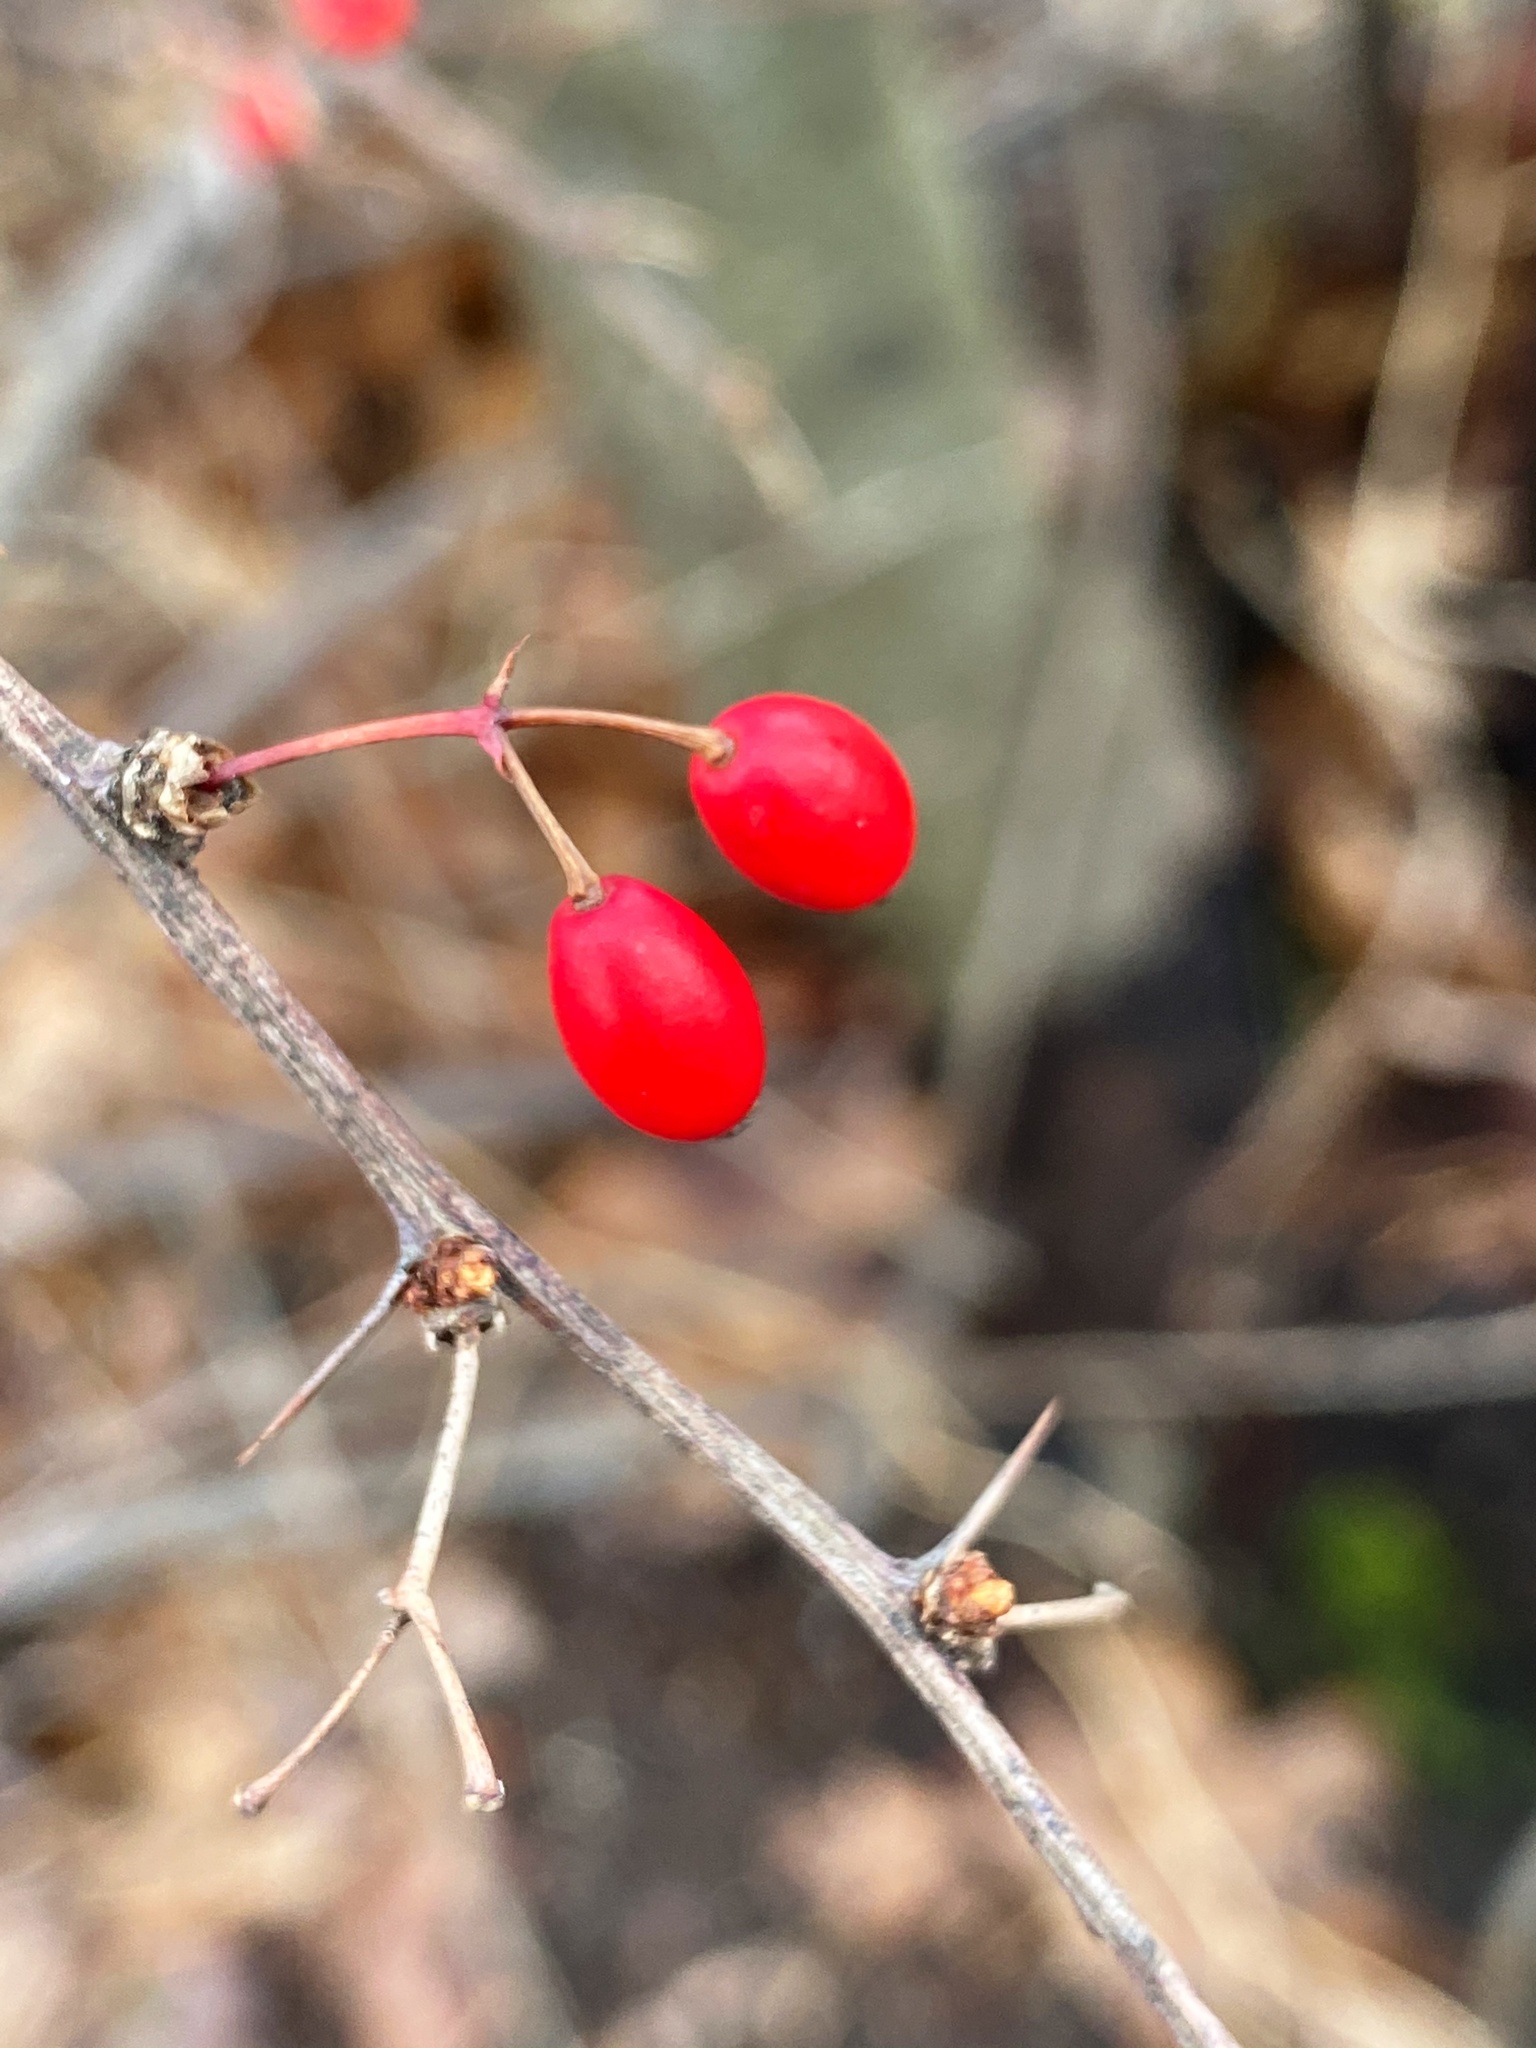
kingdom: Plantae
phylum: Tracheophyta
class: Magnoliopsida
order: Ranunculales
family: Berberidaceae
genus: Berberis
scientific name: Berberis thunbergii
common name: Japanese barberry
